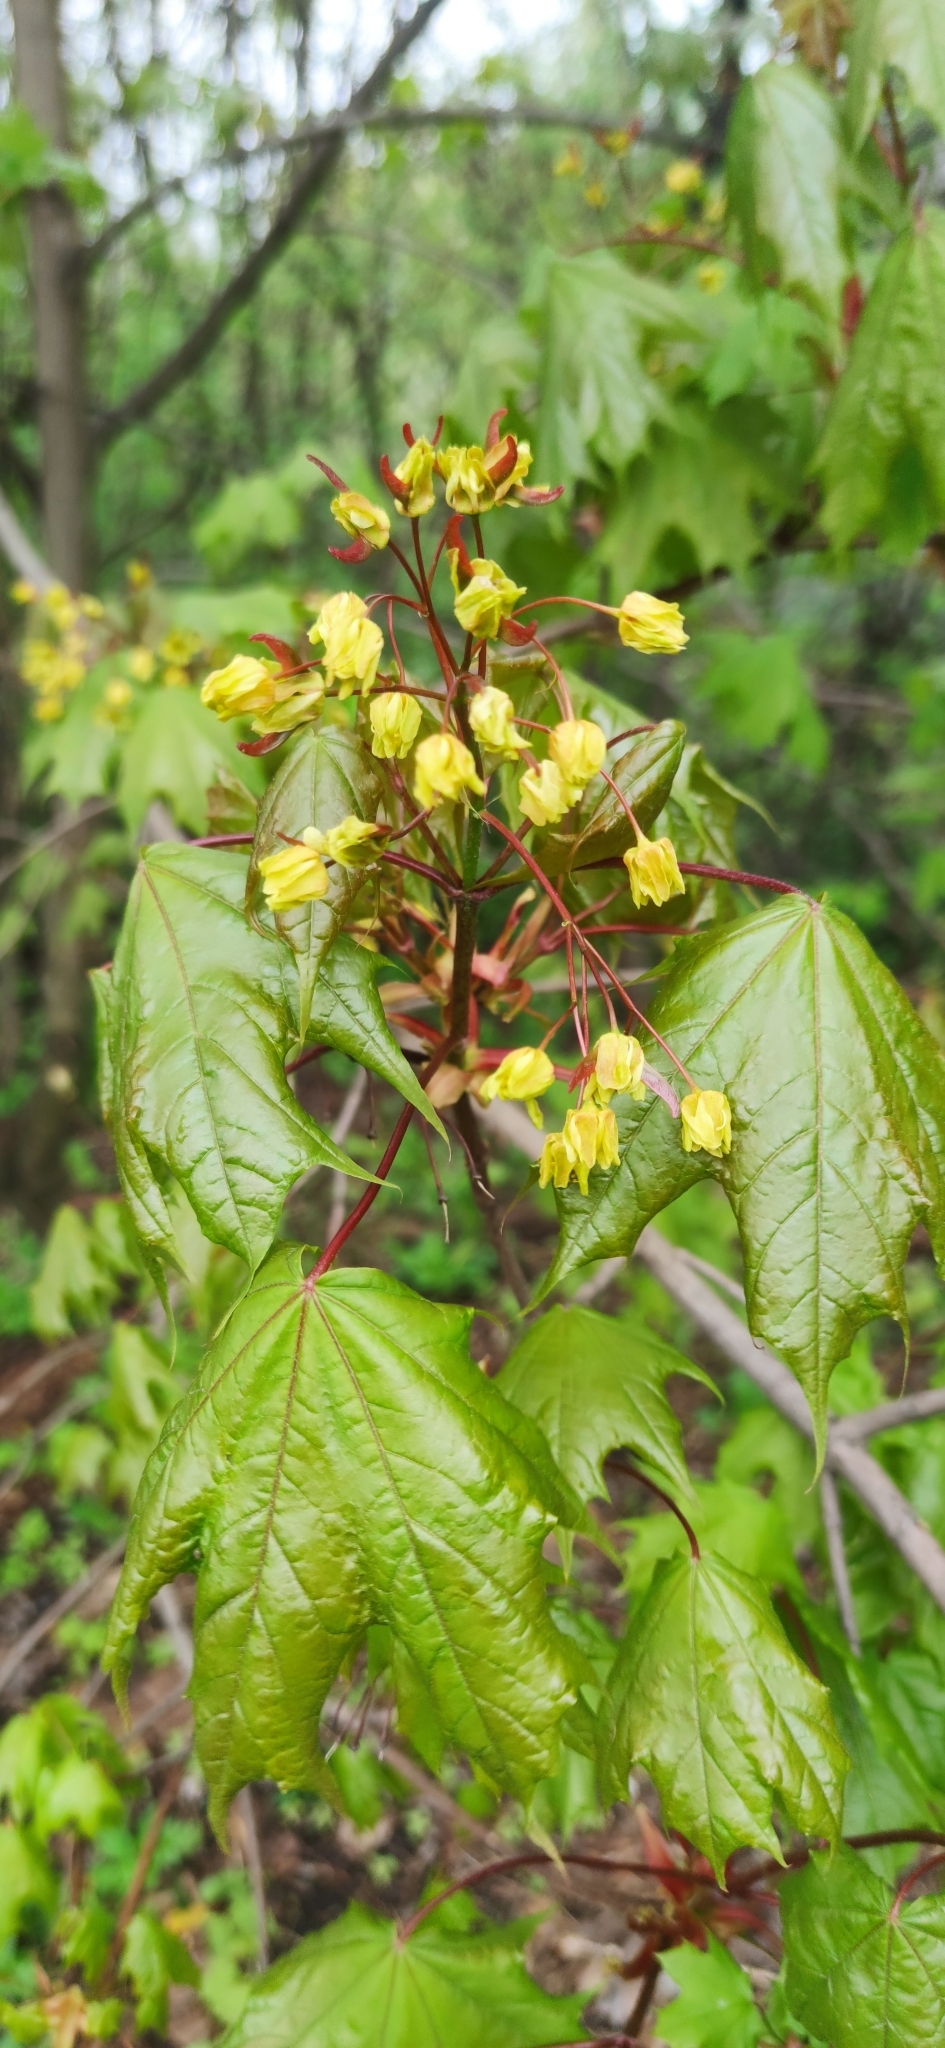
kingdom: Plantae
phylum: Tracheophyta
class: Magnoliopsida
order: Sapindales
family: Sapindaceae
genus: Acer
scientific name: Acer platanoides
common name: Norway maple
